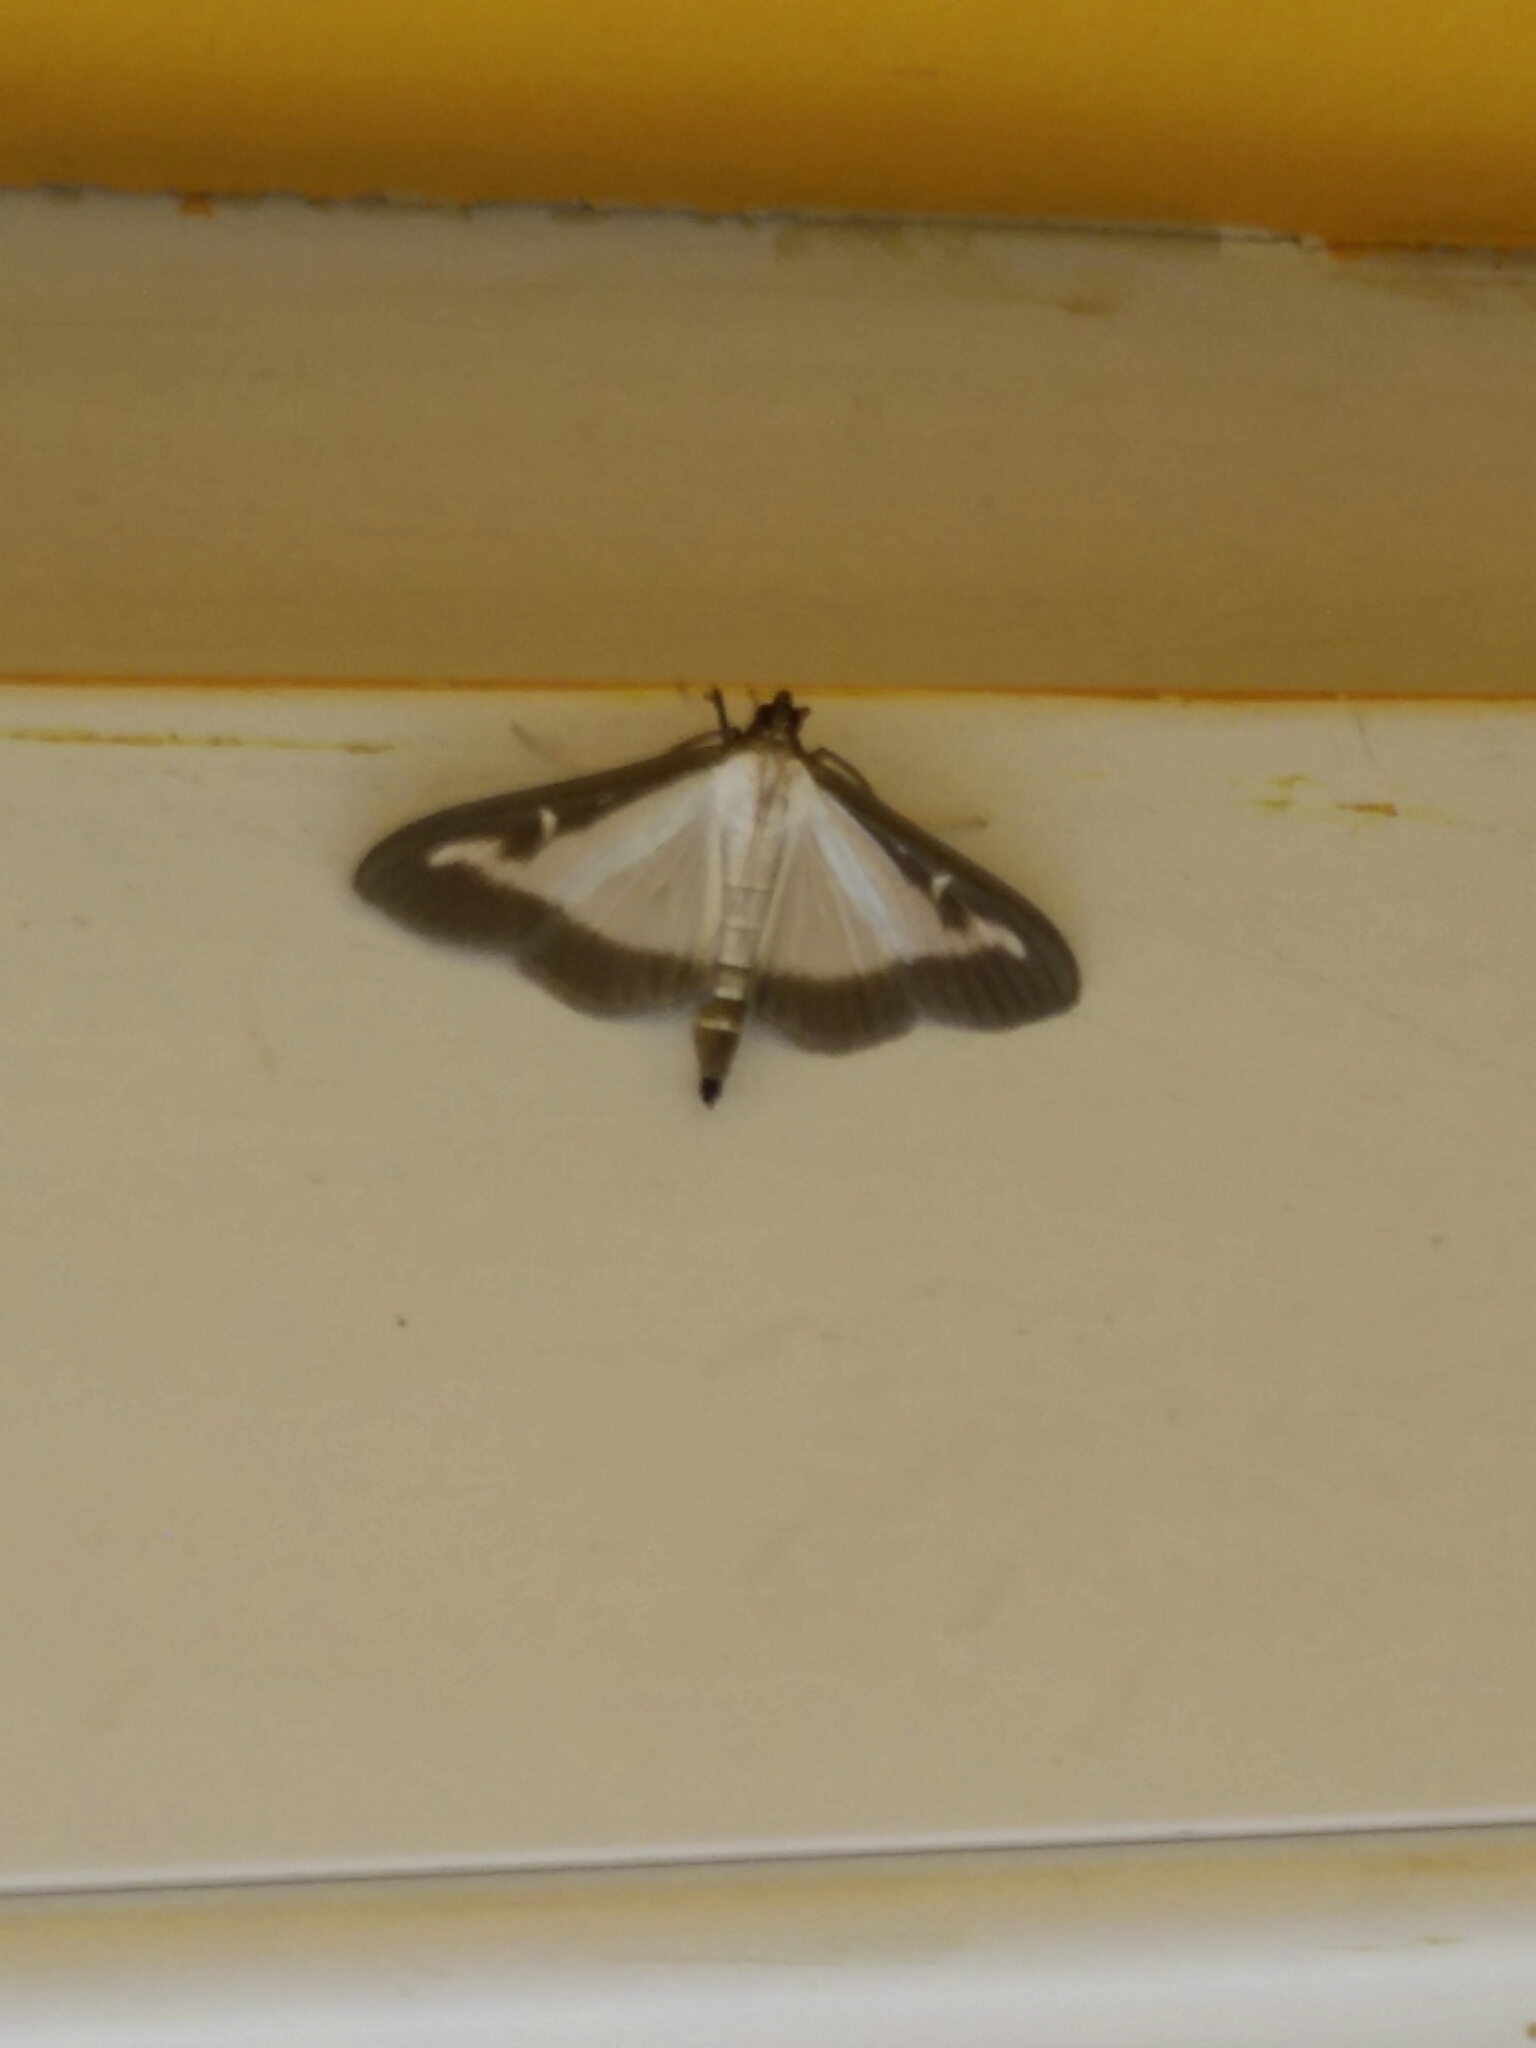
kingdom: Animalia
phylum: Arthropoda
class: Insecta
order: Lepidoptera
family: Crambidae
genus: Cydalima
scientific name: Cydalima perspectalis
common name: Box tree moth
